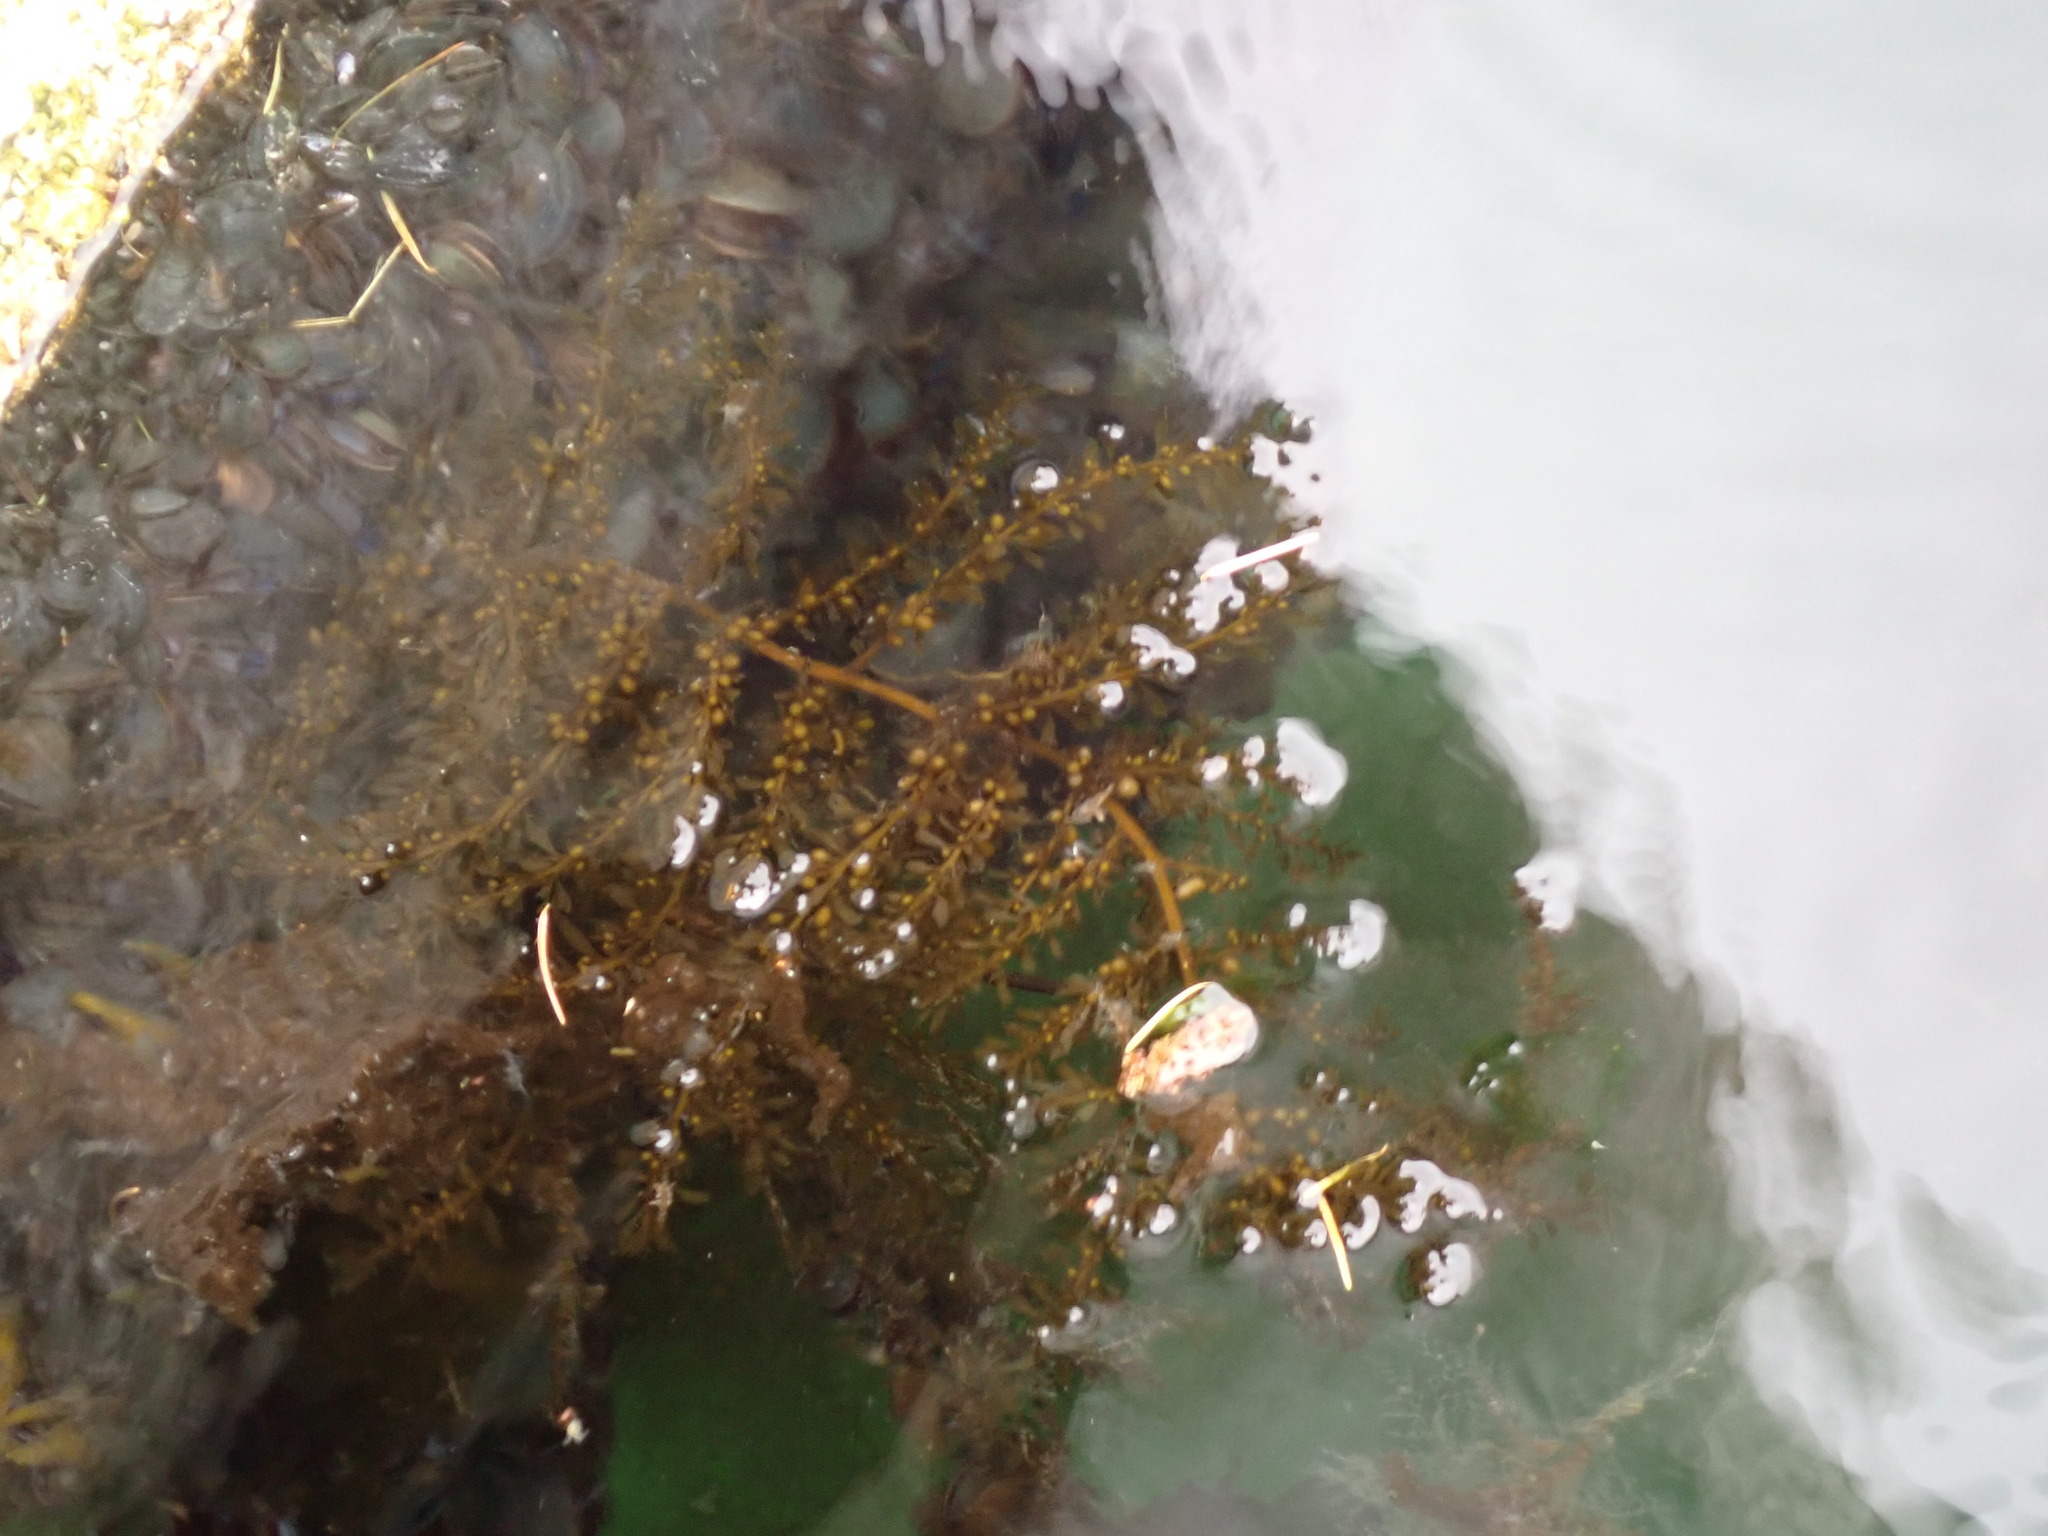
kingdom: Chromista
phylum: Ochrophyta
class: Phaeophyceae
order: Fucales
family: Sargassaceae
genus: Sargassum
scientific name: Sargassum muticum
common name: Japweed
